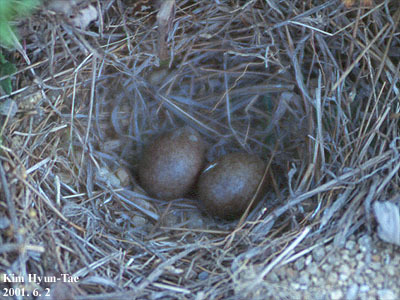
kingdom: Animalia
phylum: Chordata
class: Aves
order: Passeriformes
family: Alaudidae
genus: Alauda
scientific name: Alauda arvensis
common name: Eurasian skylark
